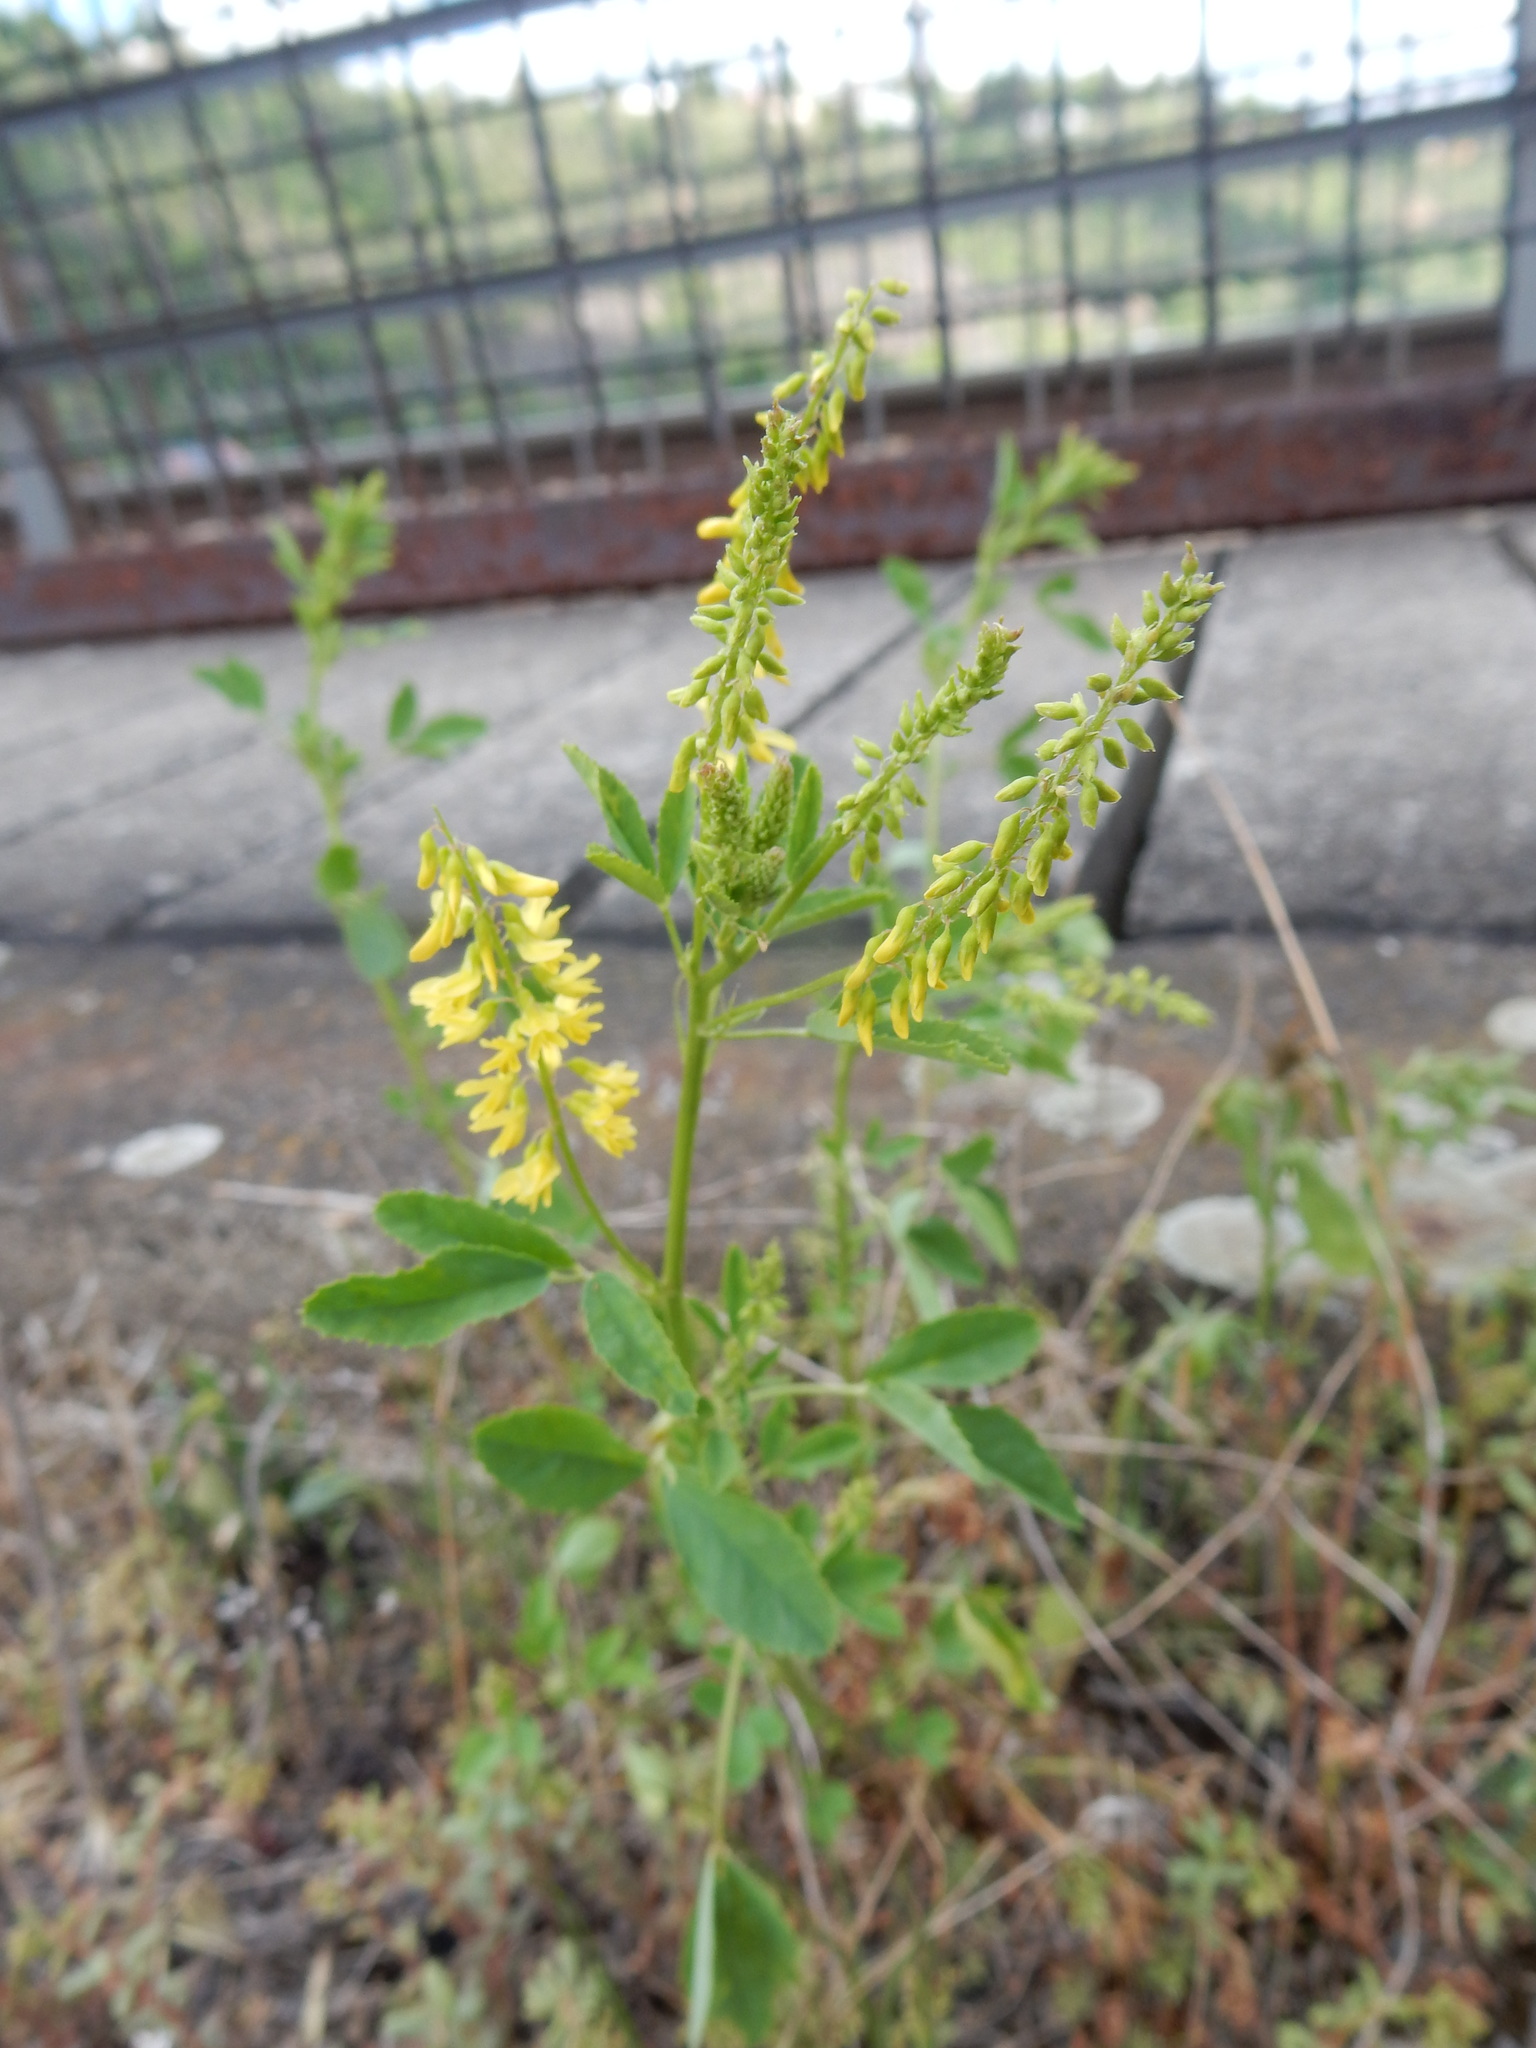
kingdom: Plantae
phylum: Tracheophyta
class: Magnoliopsida
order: Fabales
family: Fabaceae
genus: Melilotus
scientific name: Melilotus officinalis
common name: Sweetclover
